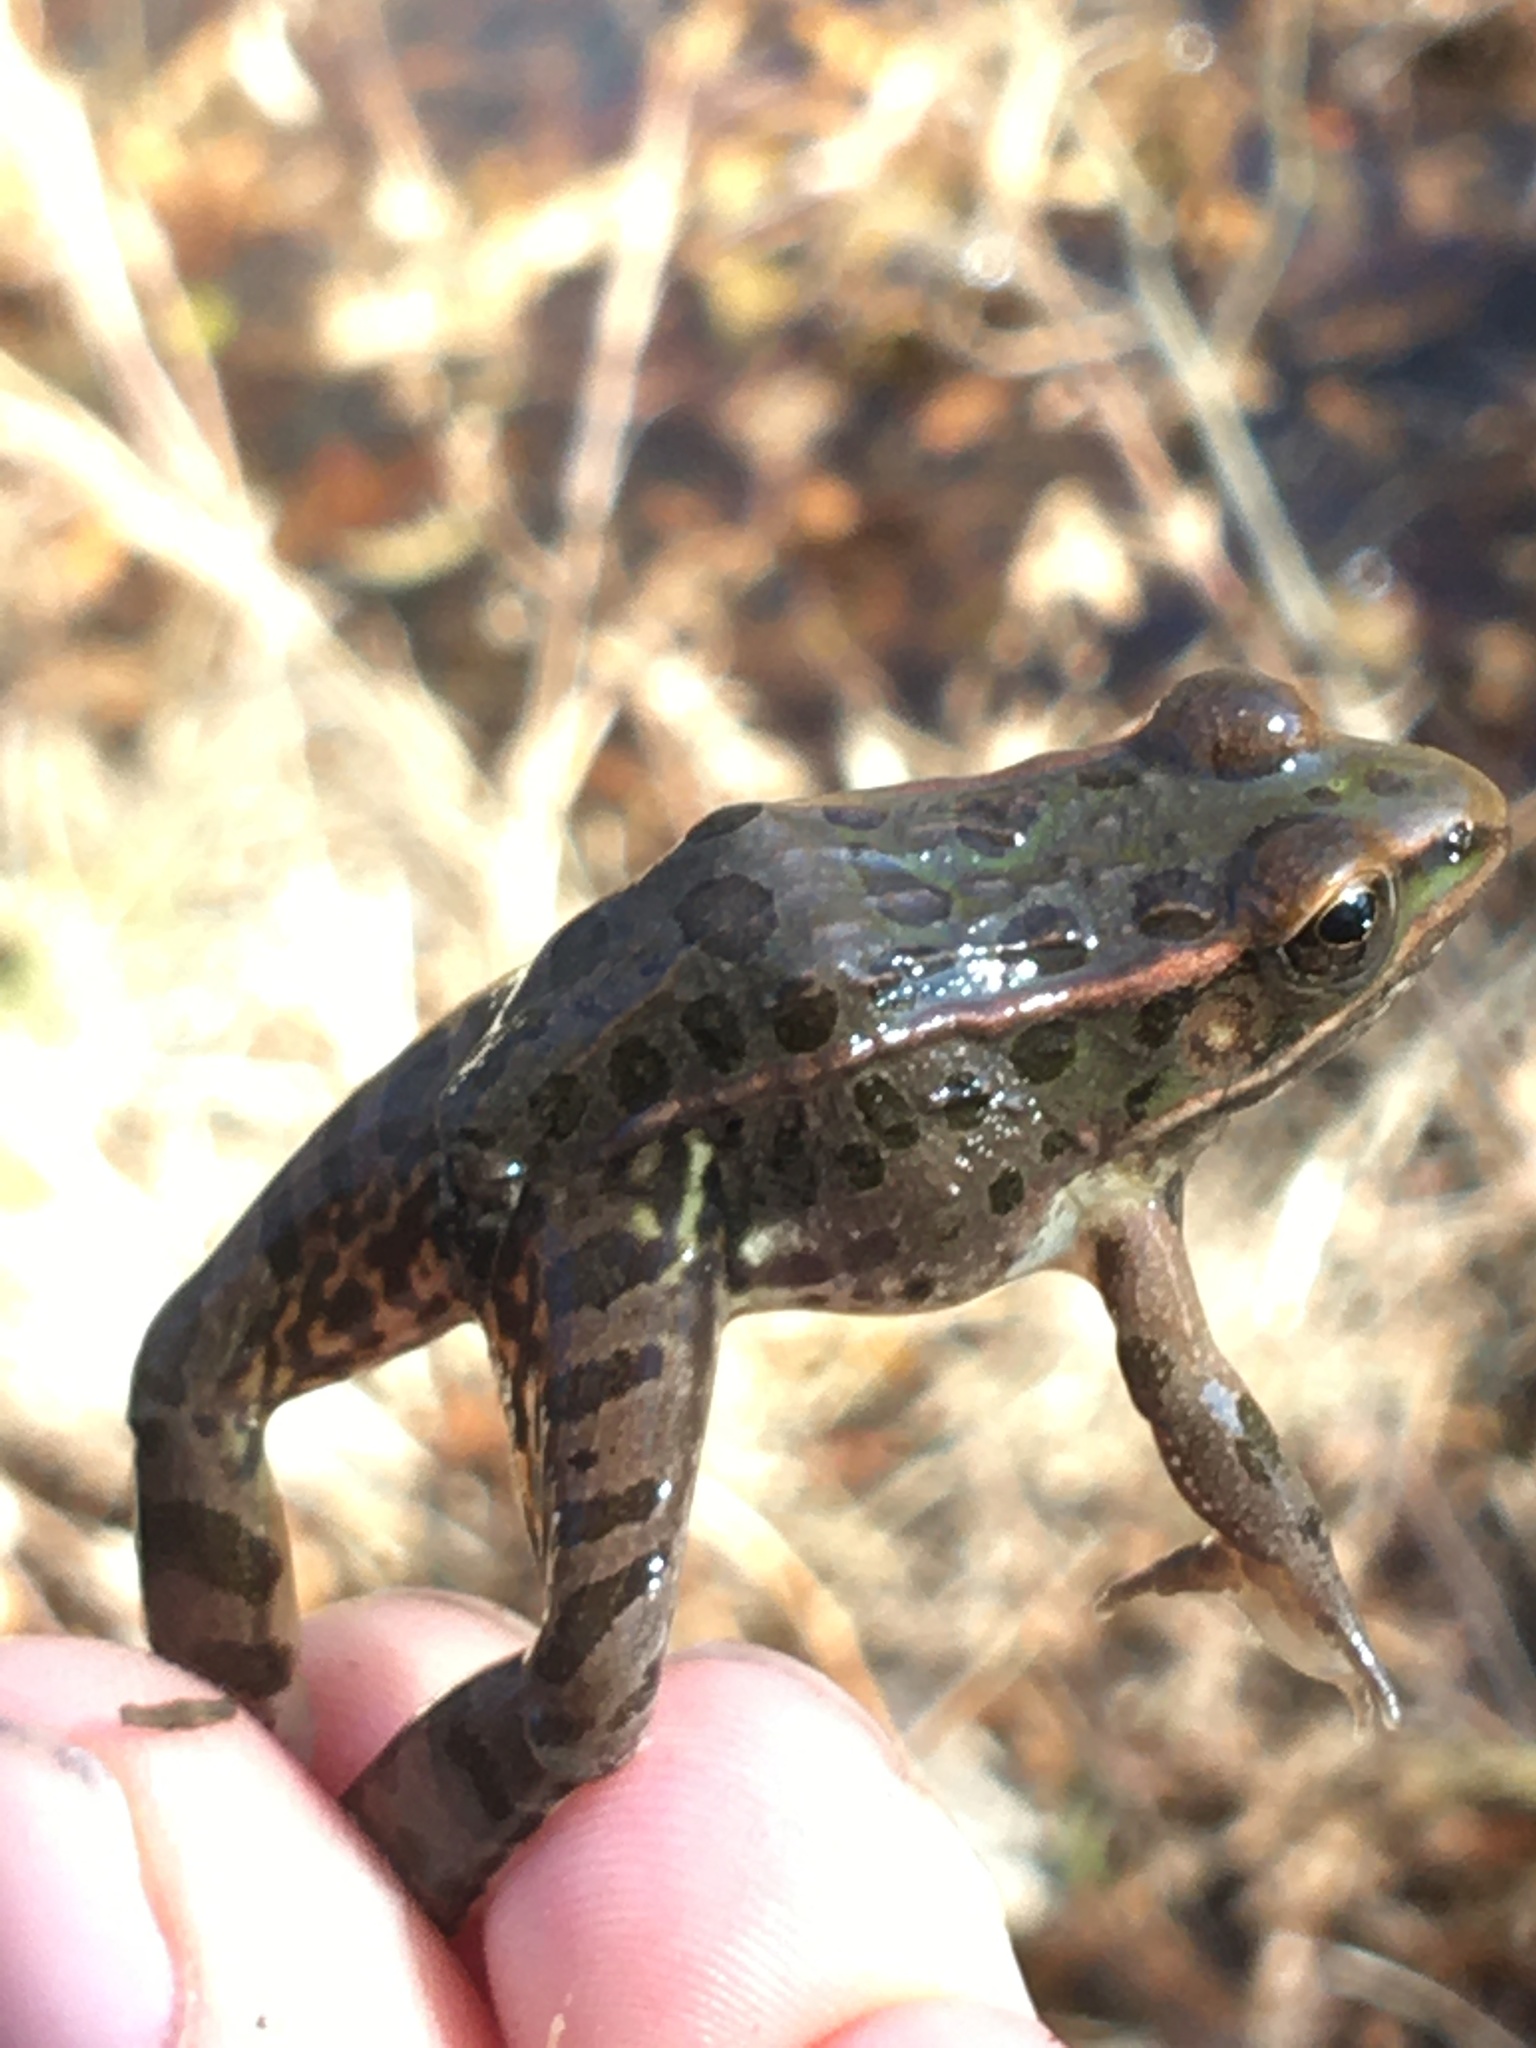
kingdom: Animalia
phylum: Chordata
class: Amphibia
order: Anura
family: Ranidae
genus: Lithobates
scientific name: Lithobates sphenocephalus
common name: Southern leopard frog
